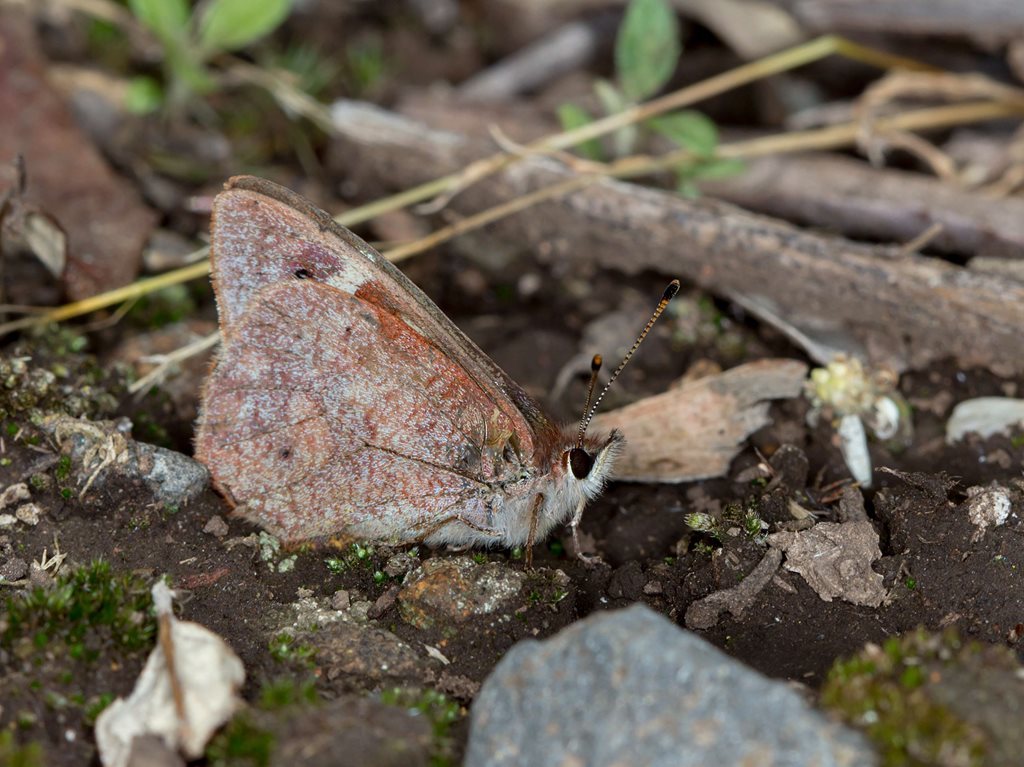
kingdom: Animalia
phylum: Arthropoda
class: Insecta
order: Lepidoptera
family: Nymphalidae
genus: Argynnina
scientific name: Argynnina cyrila
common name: Cyril's brown
